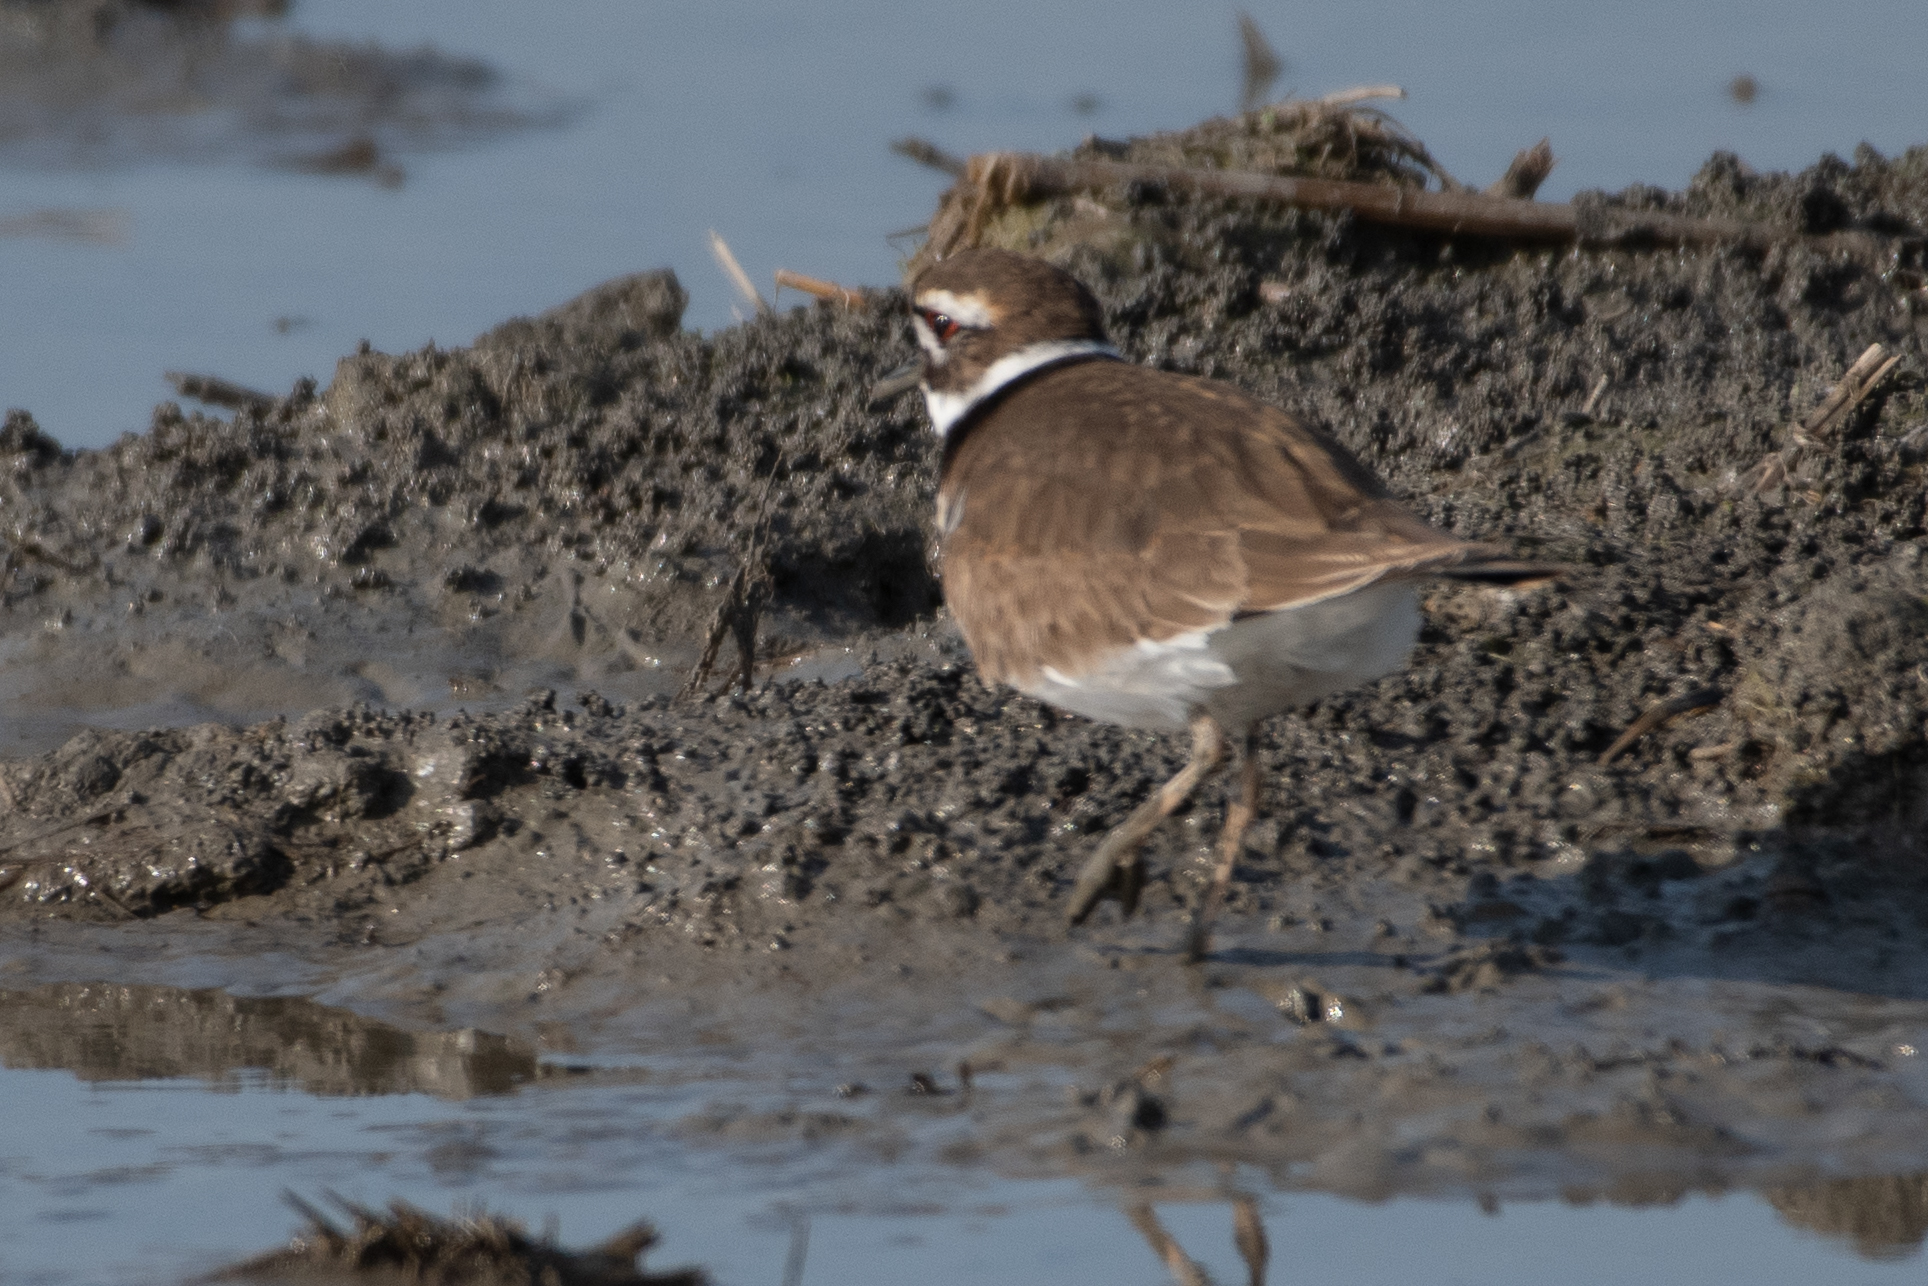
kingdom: Animalia
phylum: Chordata
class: Aves
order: Charadriiformes
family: Charadriidae
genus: Charadrius
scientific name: Charadrius vociferus
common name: Killdeer
